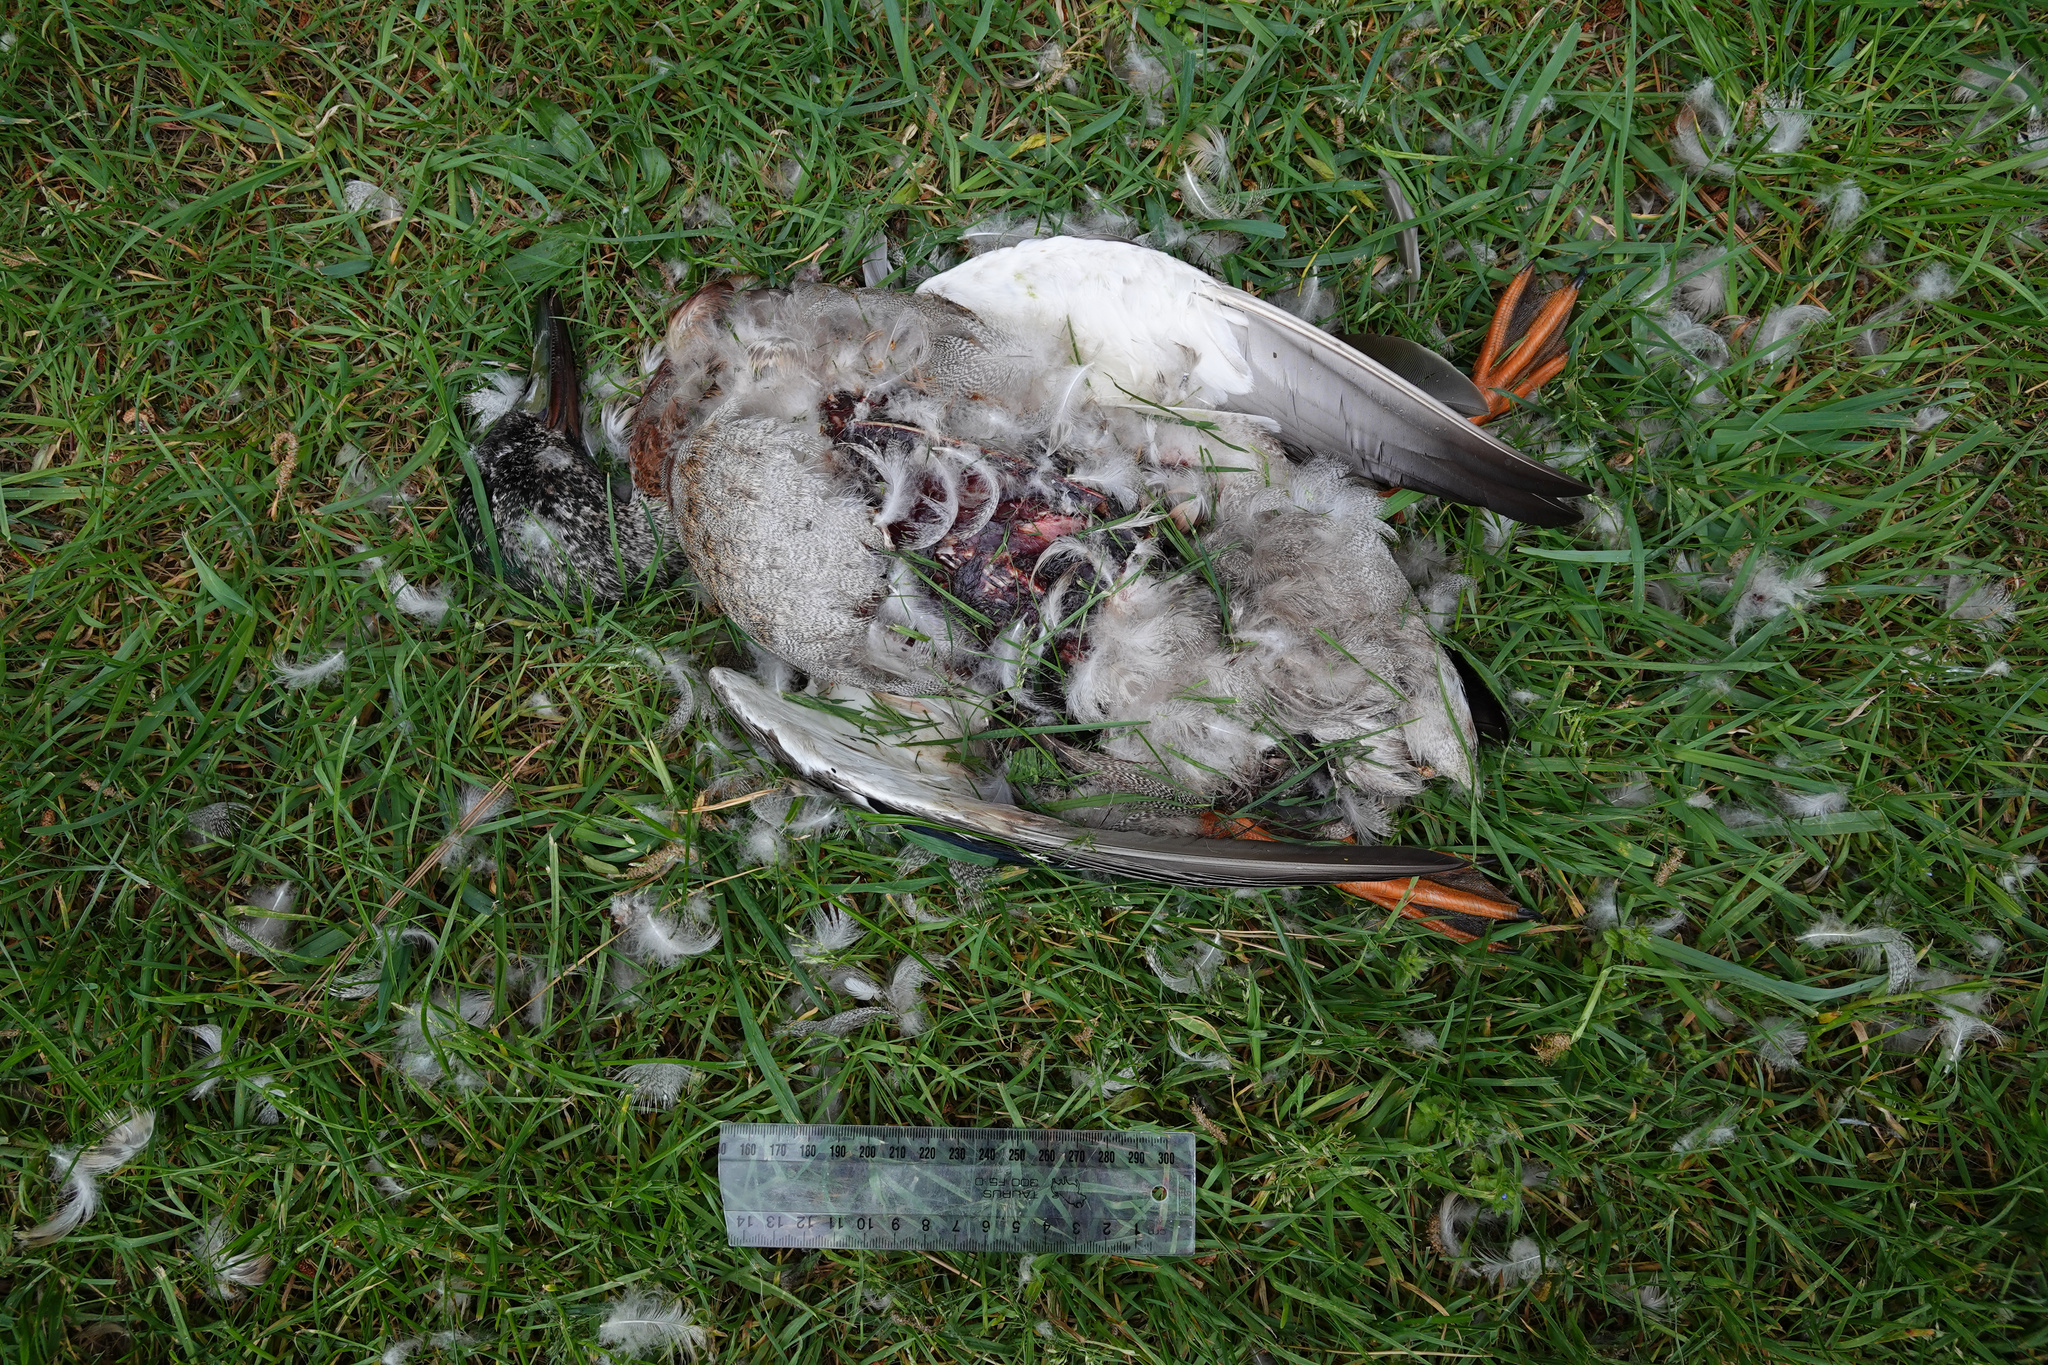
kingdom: Animalia
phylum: Chordata
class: Aves
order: Anseriformes
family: Anatidae
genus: Anas
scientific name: Anas
